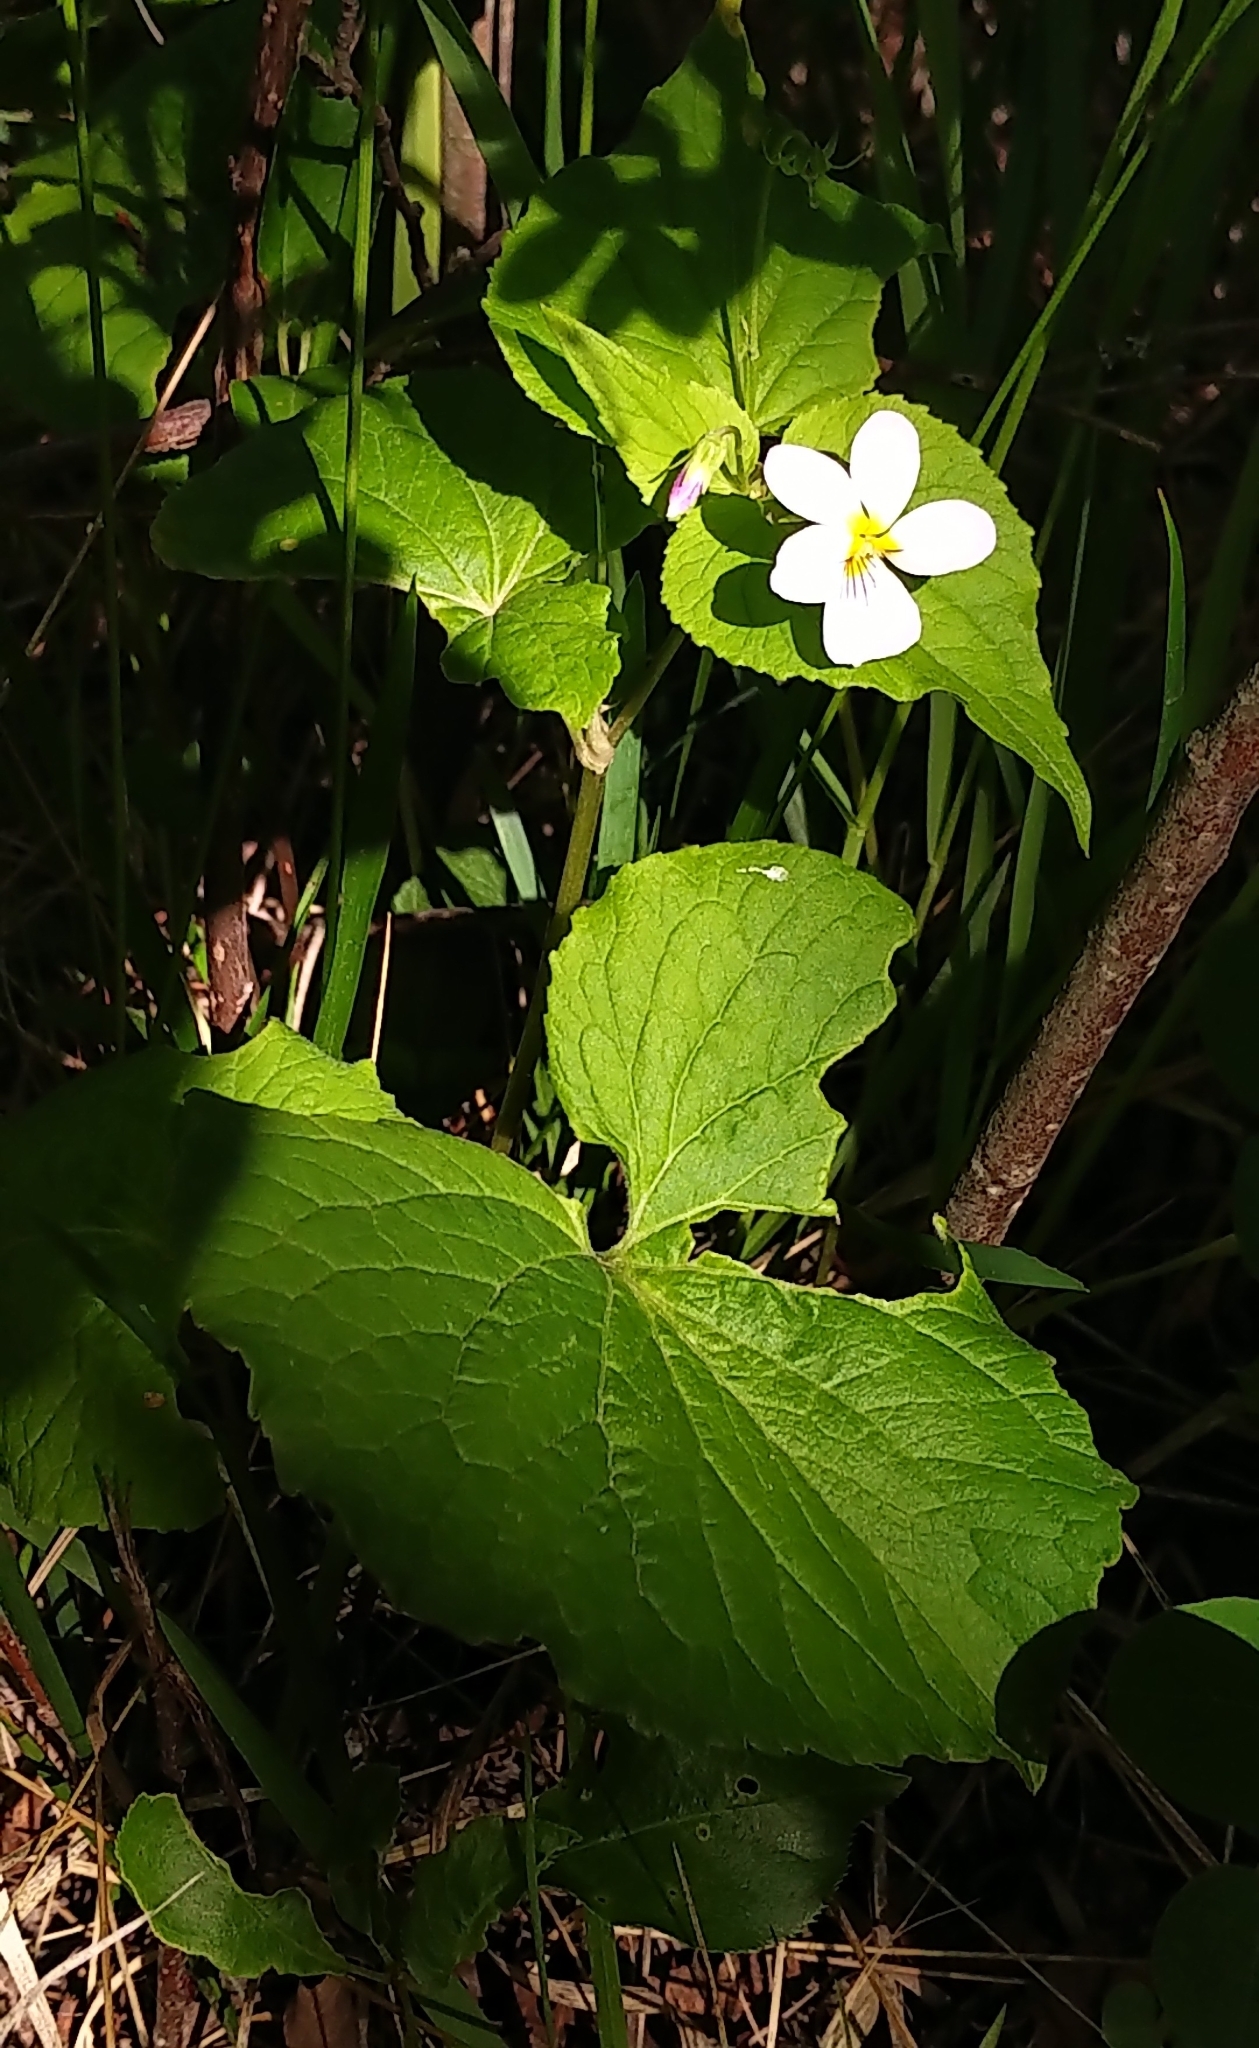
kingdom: Plantae
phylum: Tracheophyta
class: Magnoliopsida
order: Malpighiales
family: Violaceae
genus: Viola
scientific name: Viola canadensis
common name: Canada violet
